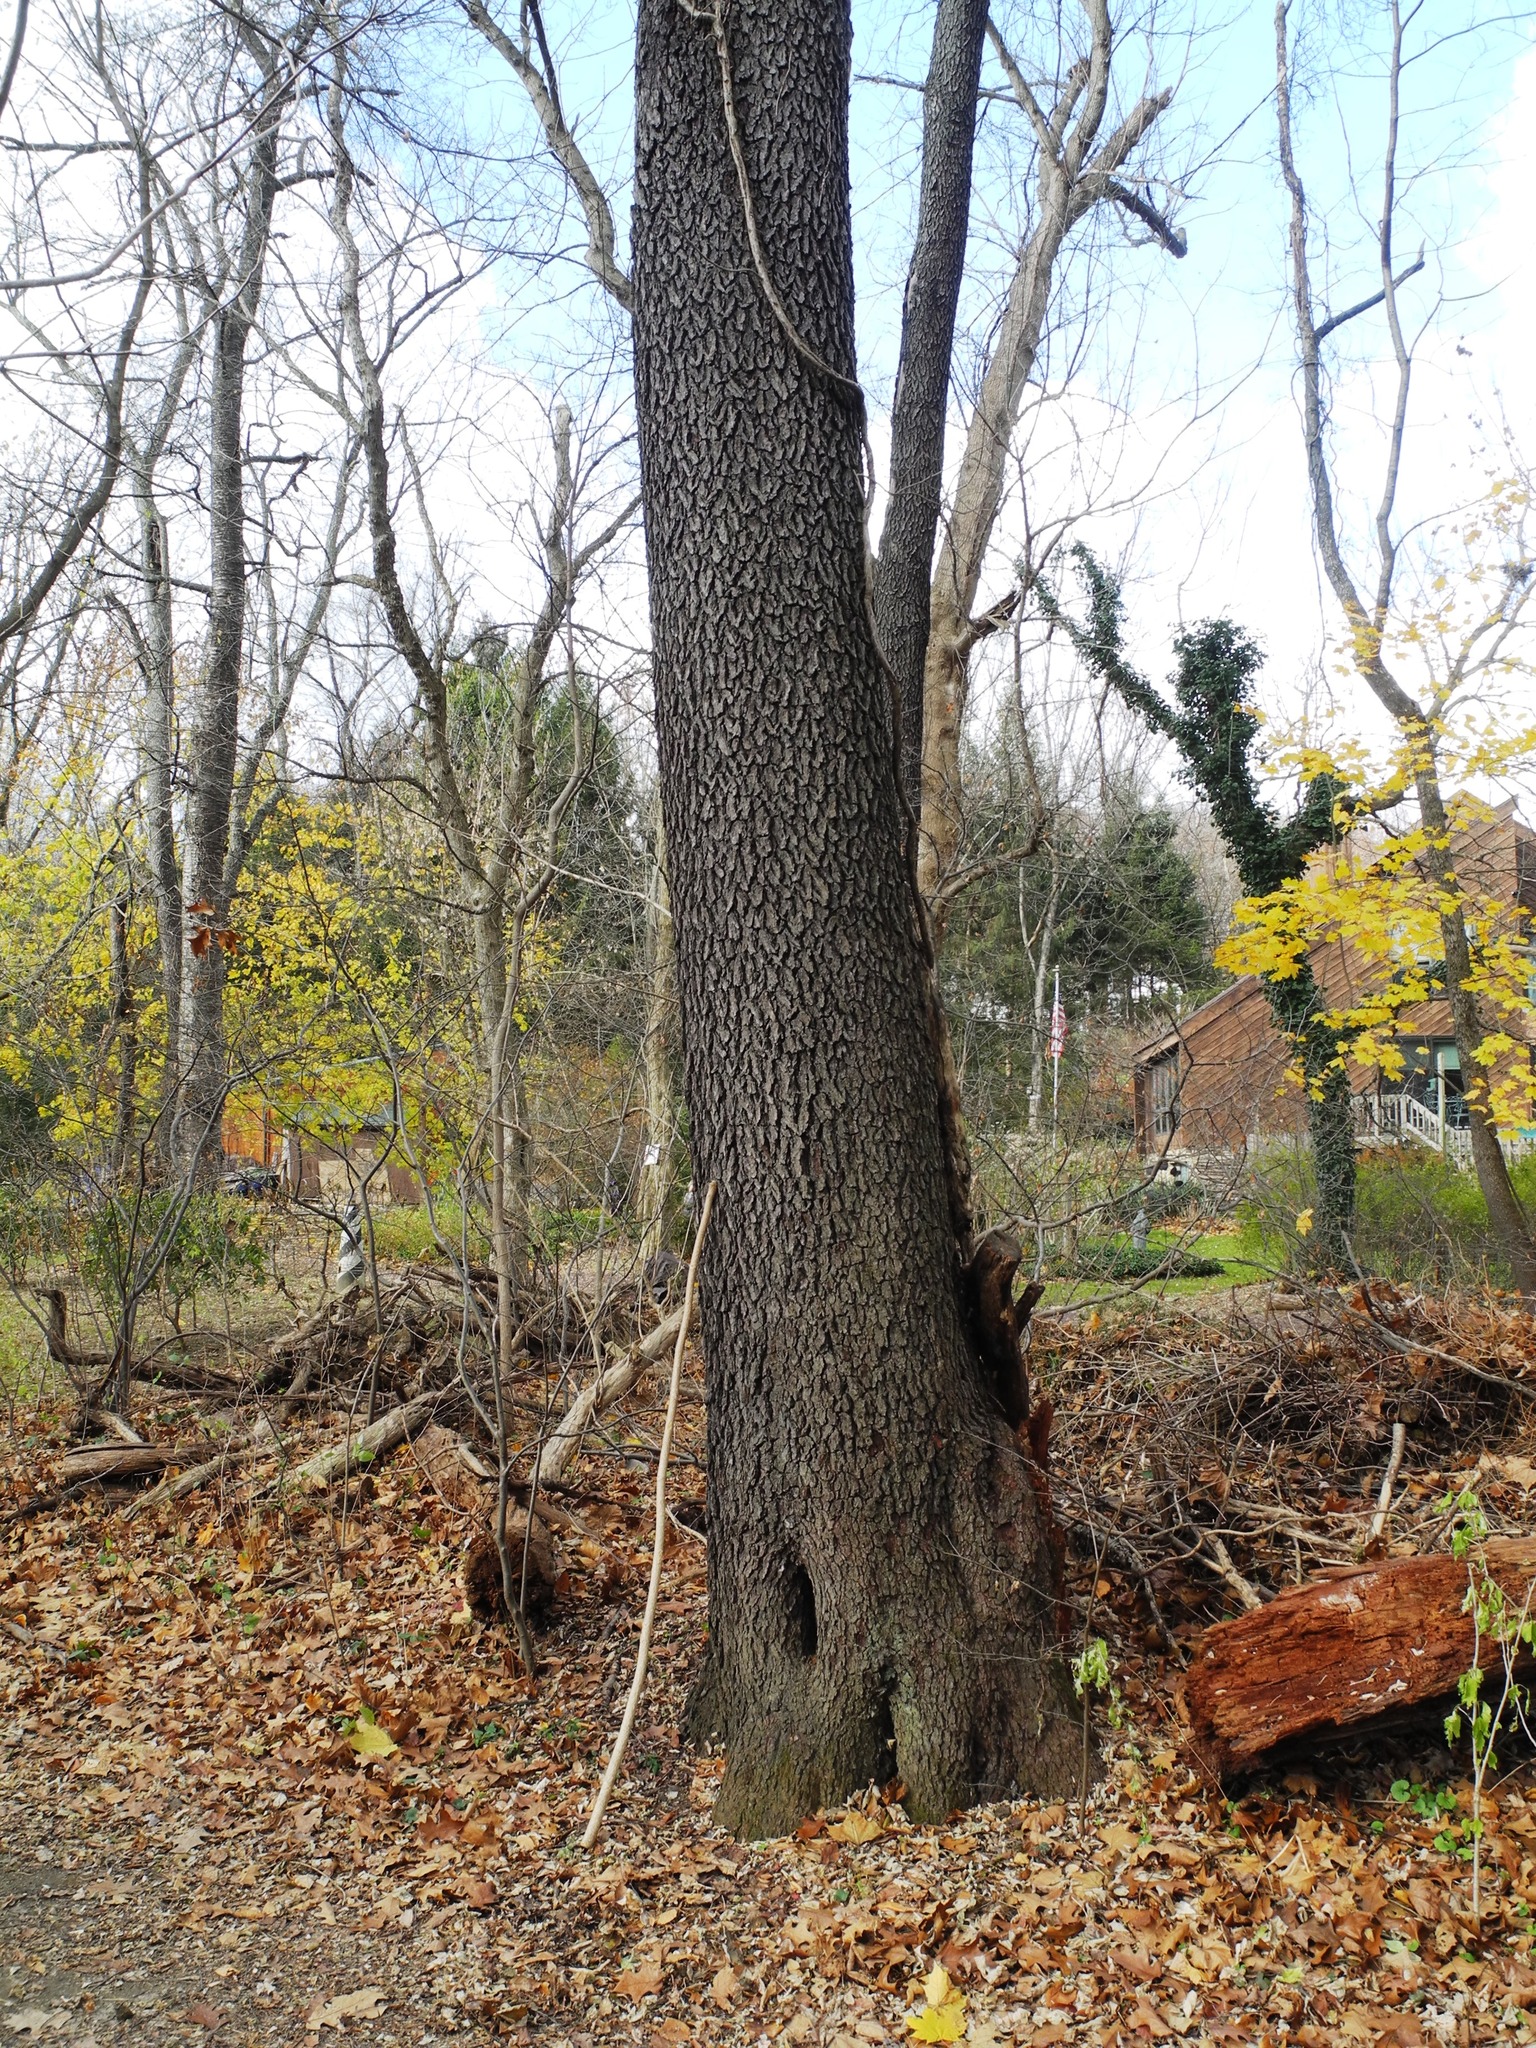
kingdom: Plantae
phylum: Tracheophyta
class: Magnoliopsida
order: Fagales
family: Fagaceae
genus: Quercus
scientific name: Quercus velutina
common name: Black oak
